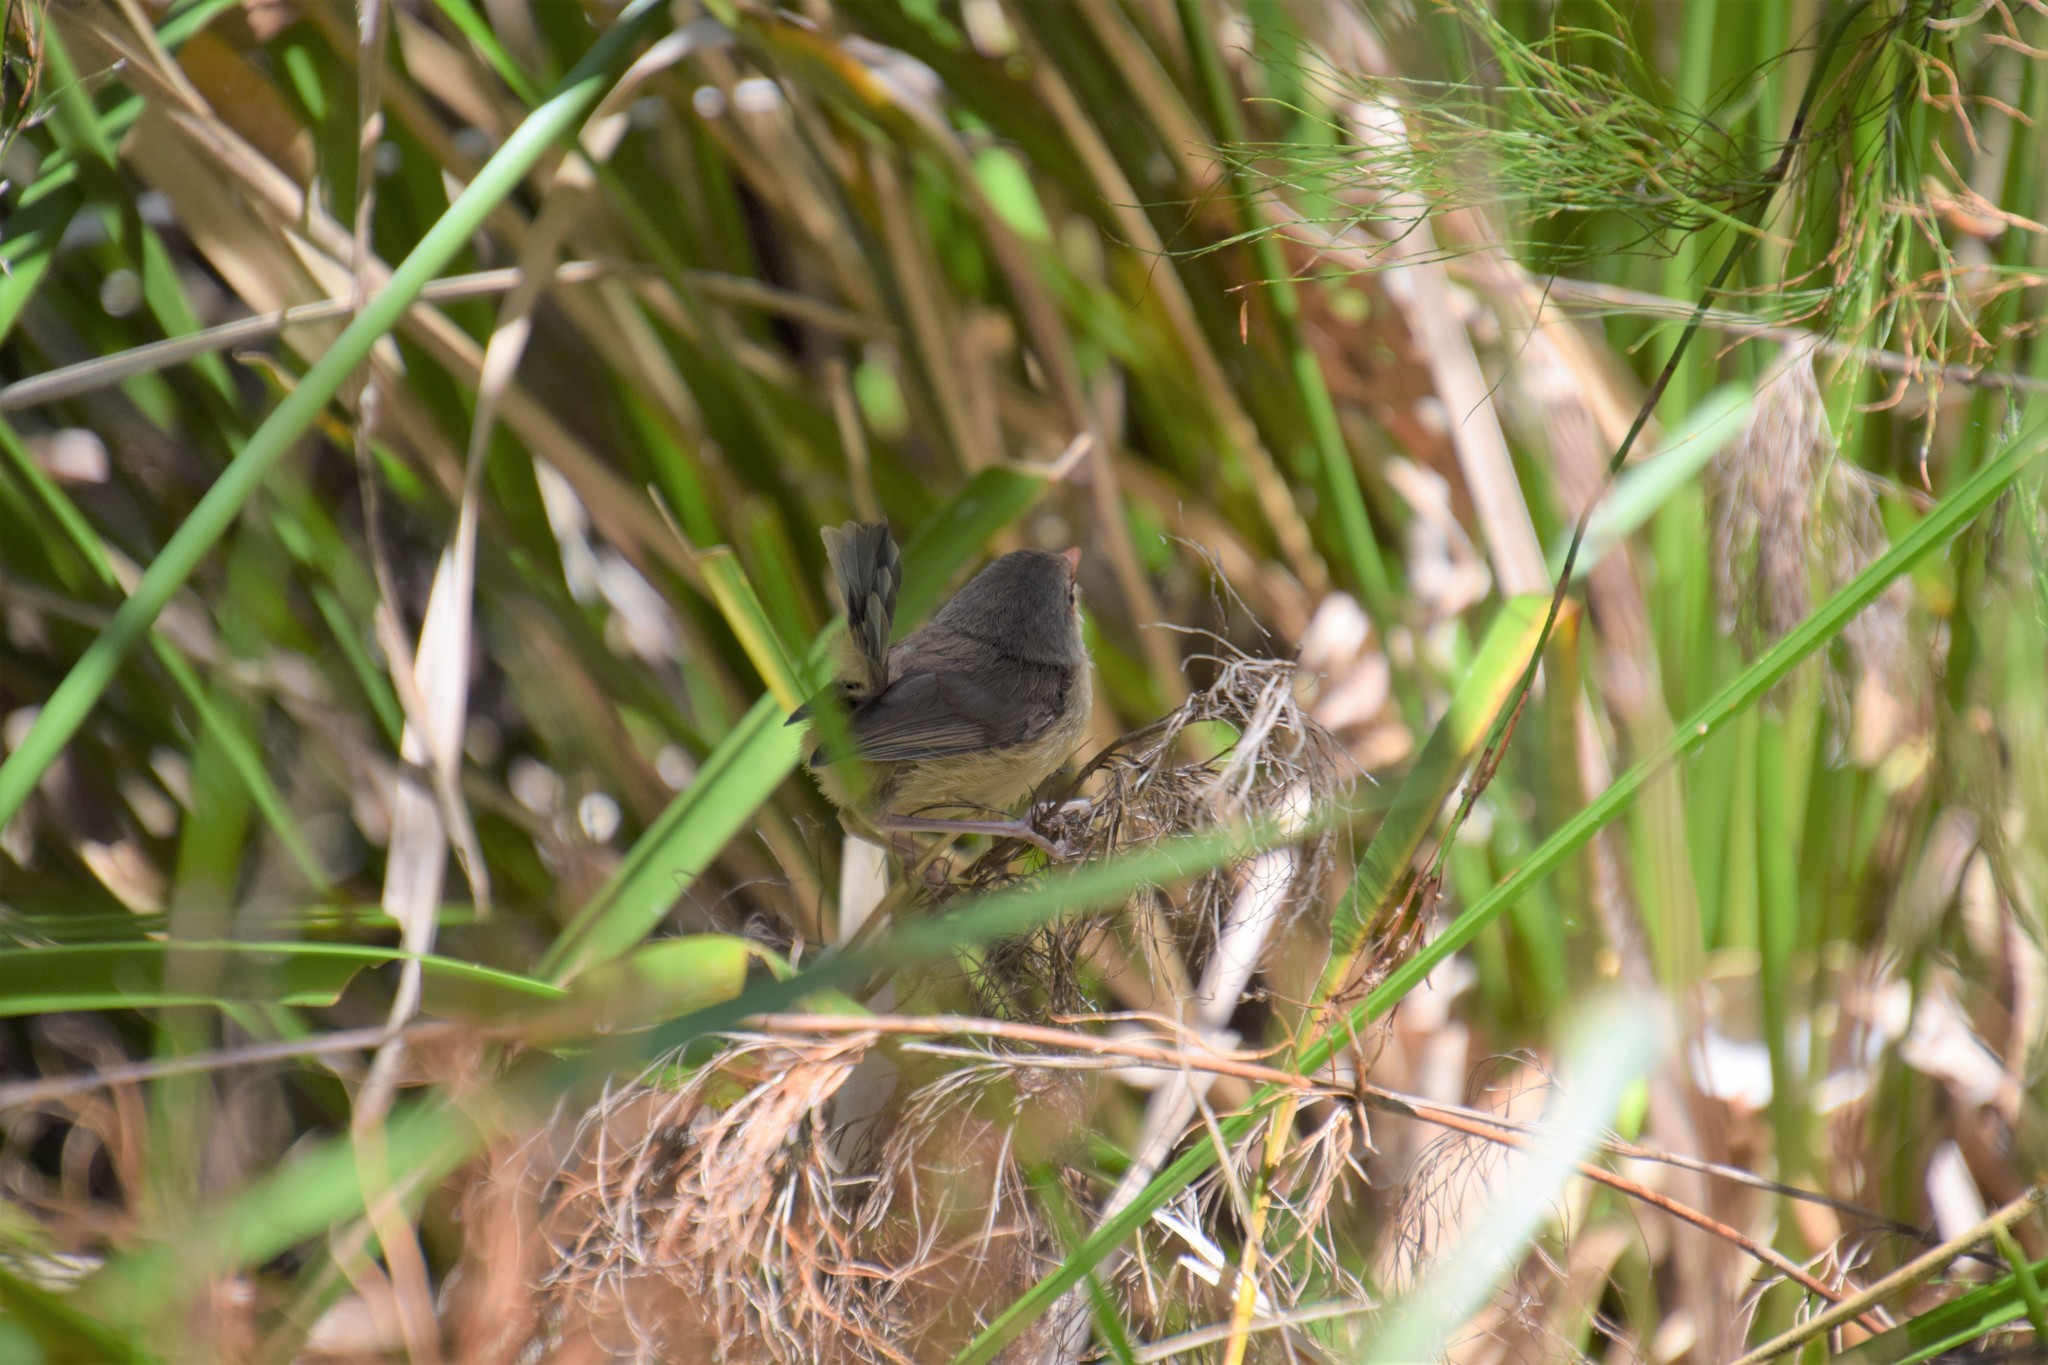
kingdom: Animalia
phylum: Chordata
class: Aves
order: Passeriformes
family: Maluridae
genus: Malurus
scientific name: Malurus lamberti
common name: Variegated fairywren
